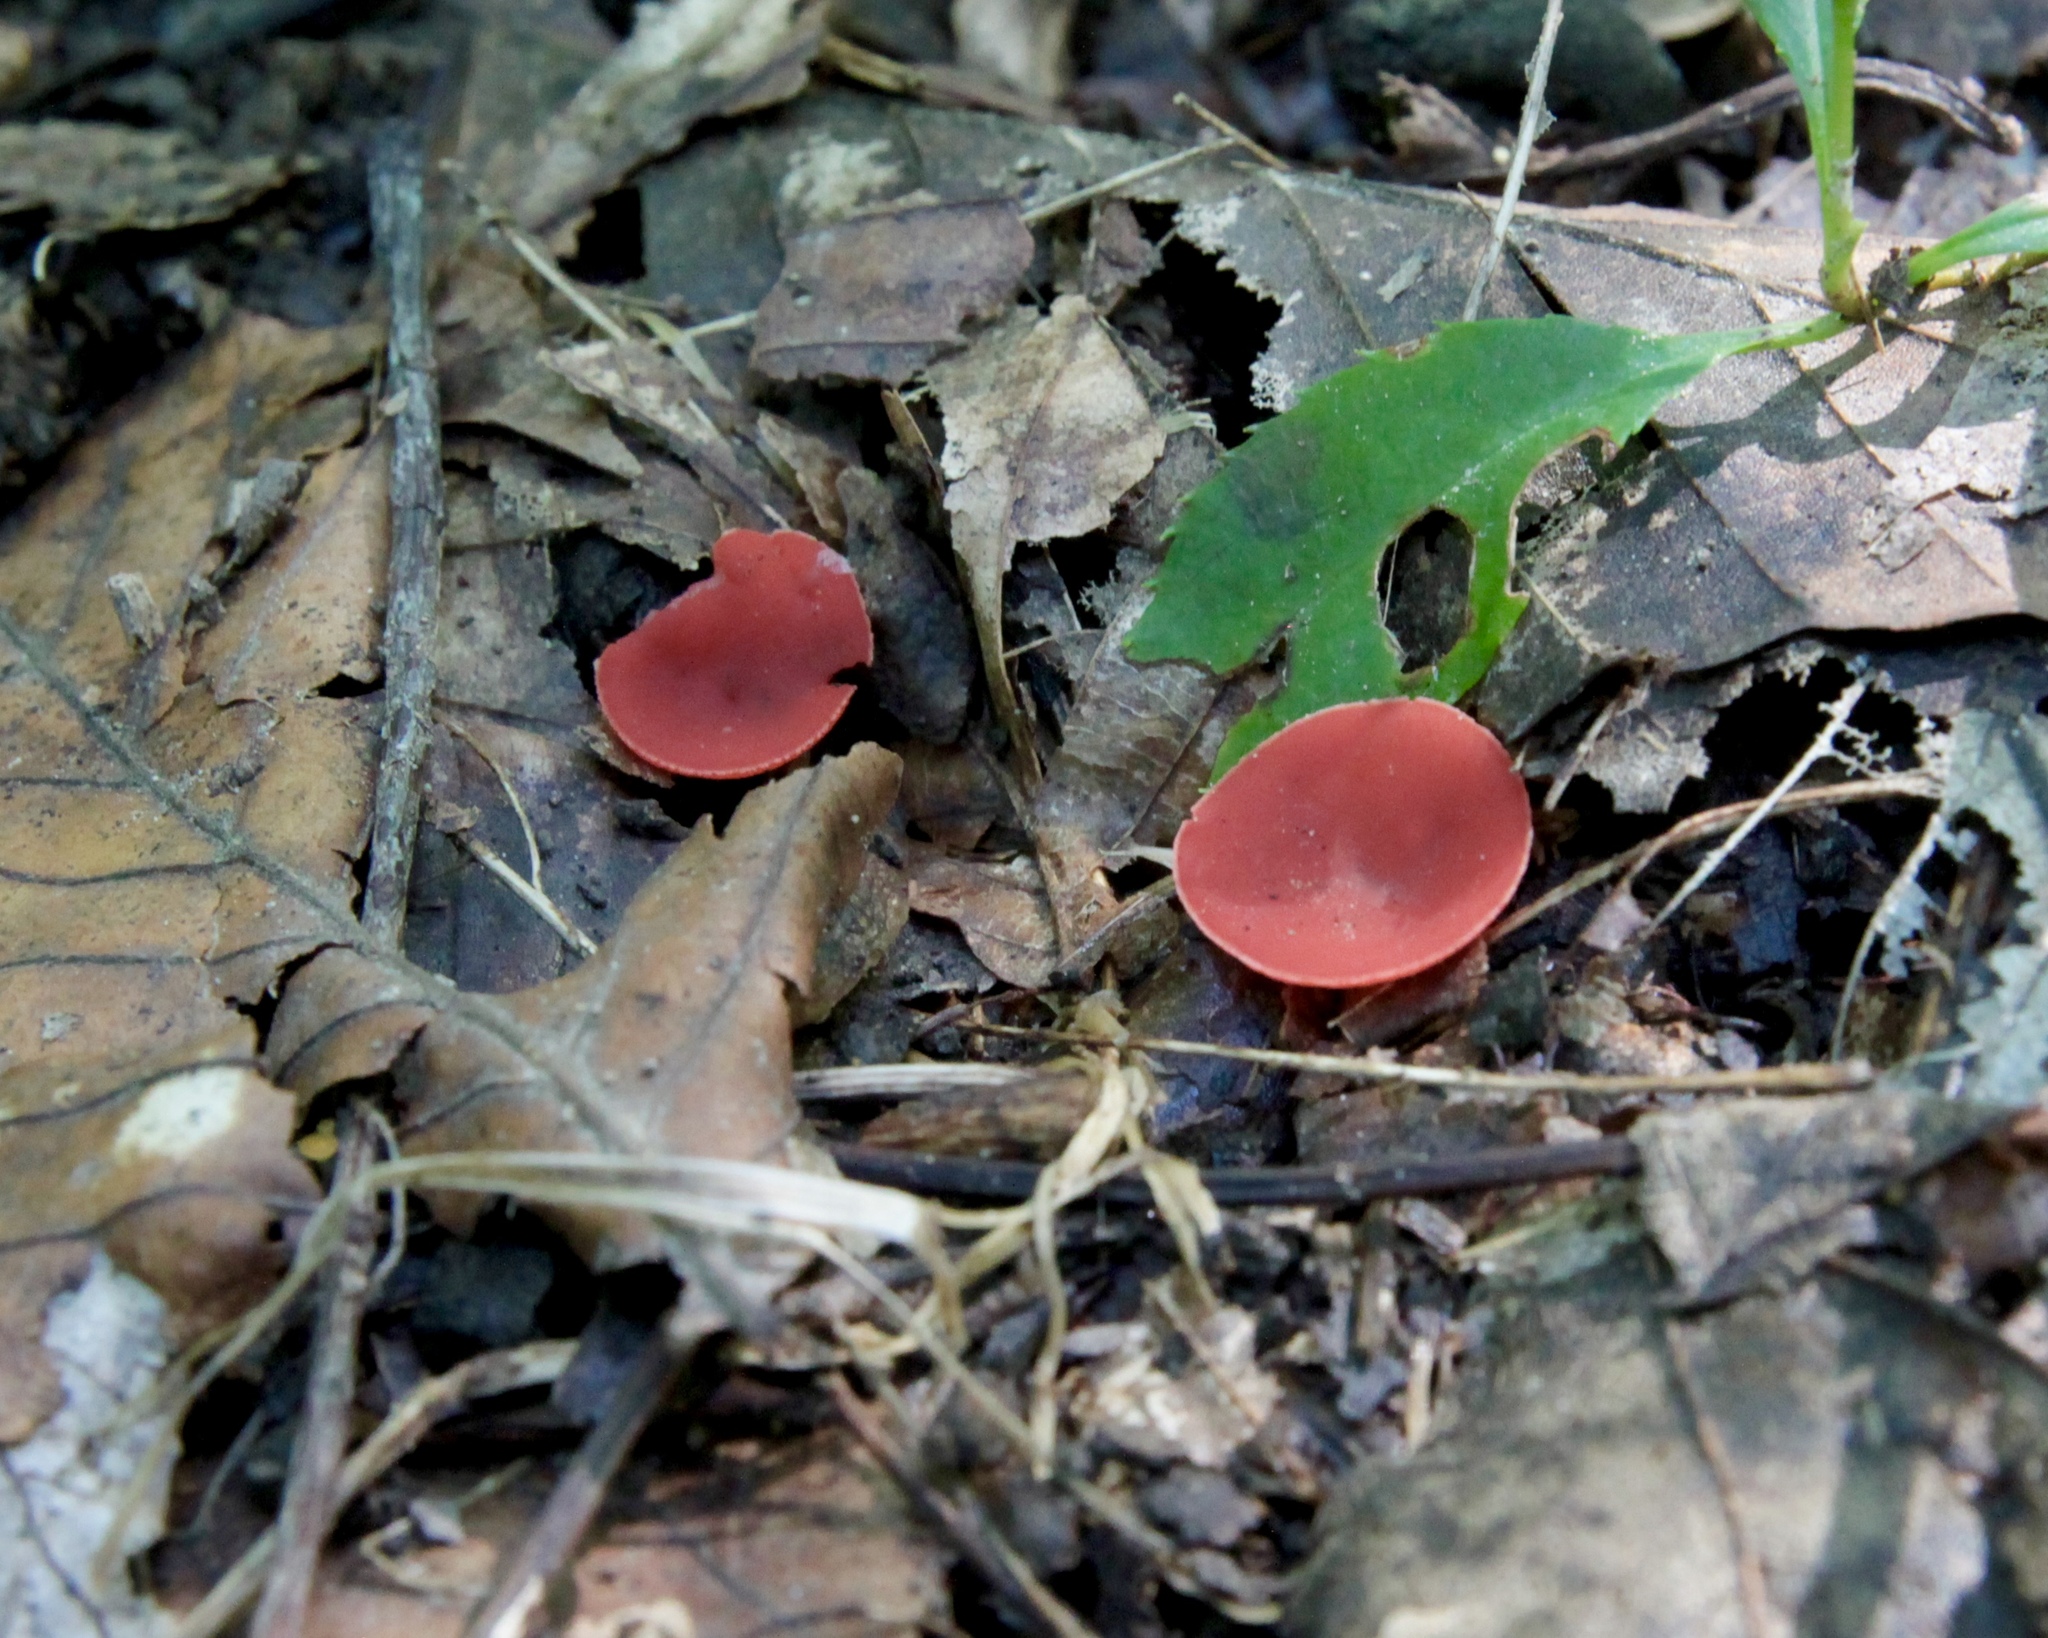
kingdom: Fungi
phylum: Ascomycota
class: Pezizomycetes
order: Pezizales
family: Sarcoscyphaceae
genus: Sarcoscypha
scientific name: Sarcoscypha occidentalis
